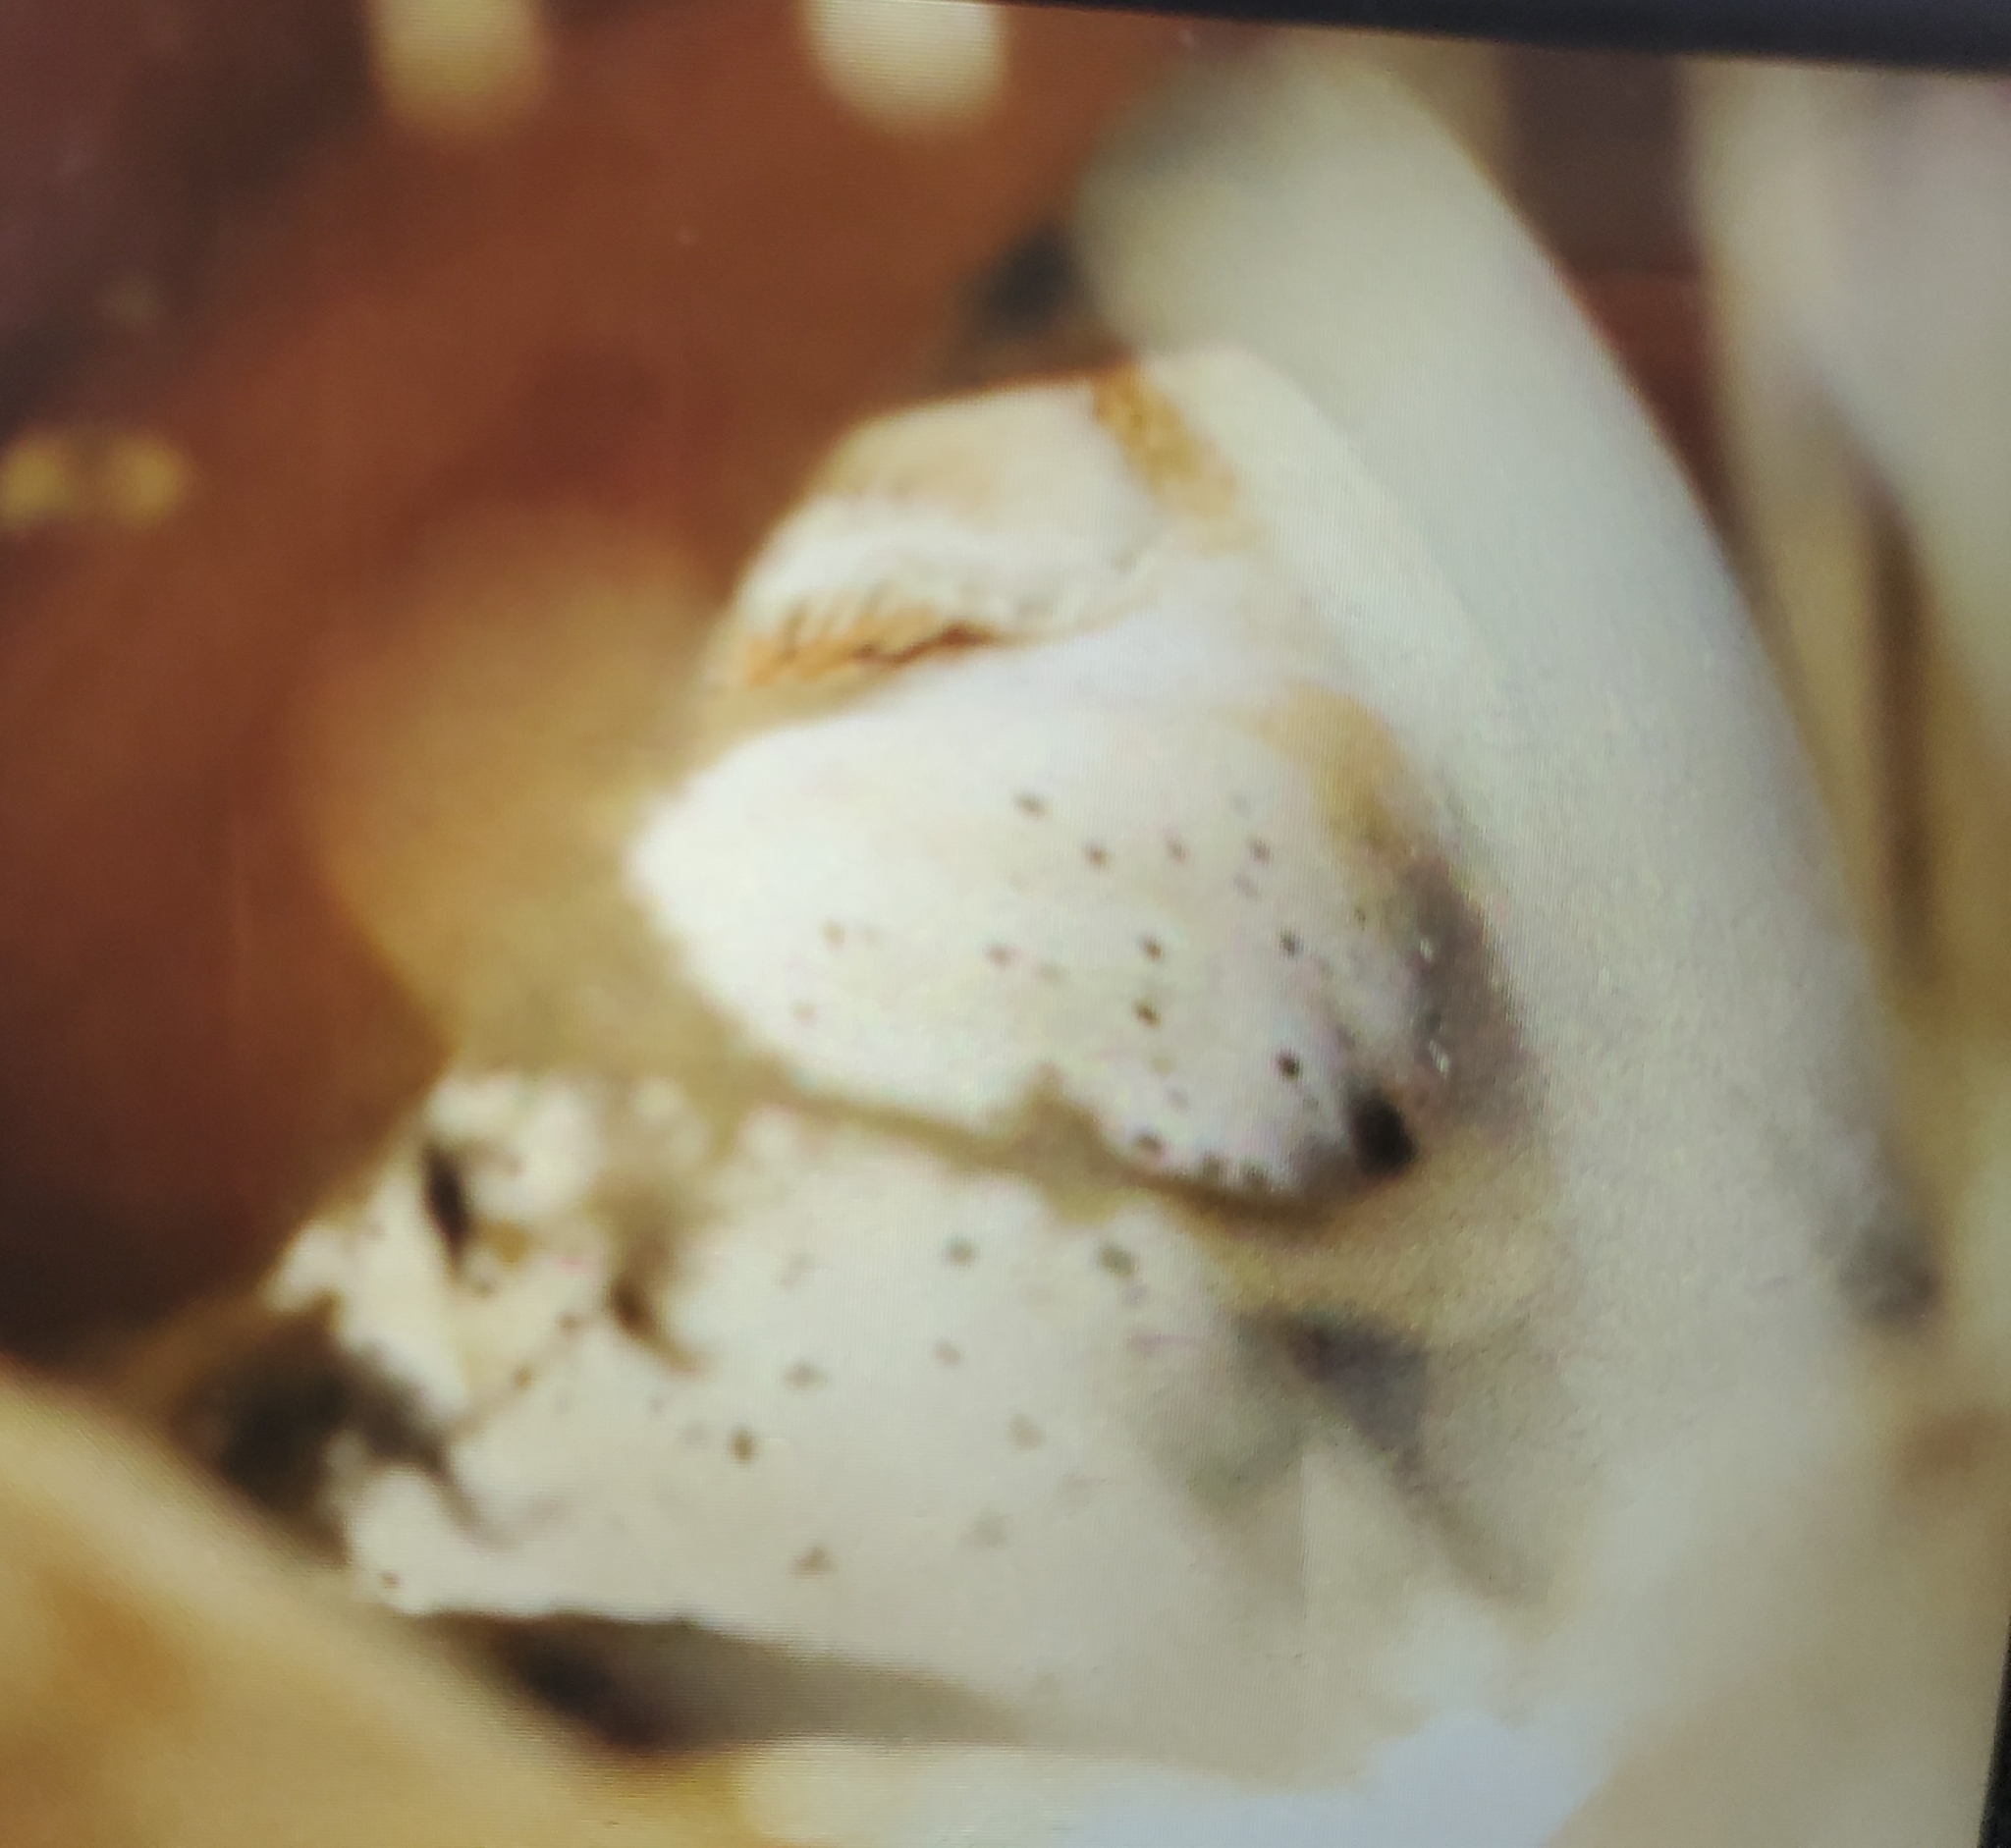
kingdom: Animalia
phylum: Chordata
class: Aves
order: Strigiformes
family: Tytonidae
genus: Tyto
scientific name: Tyto alba
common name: Barn owl
